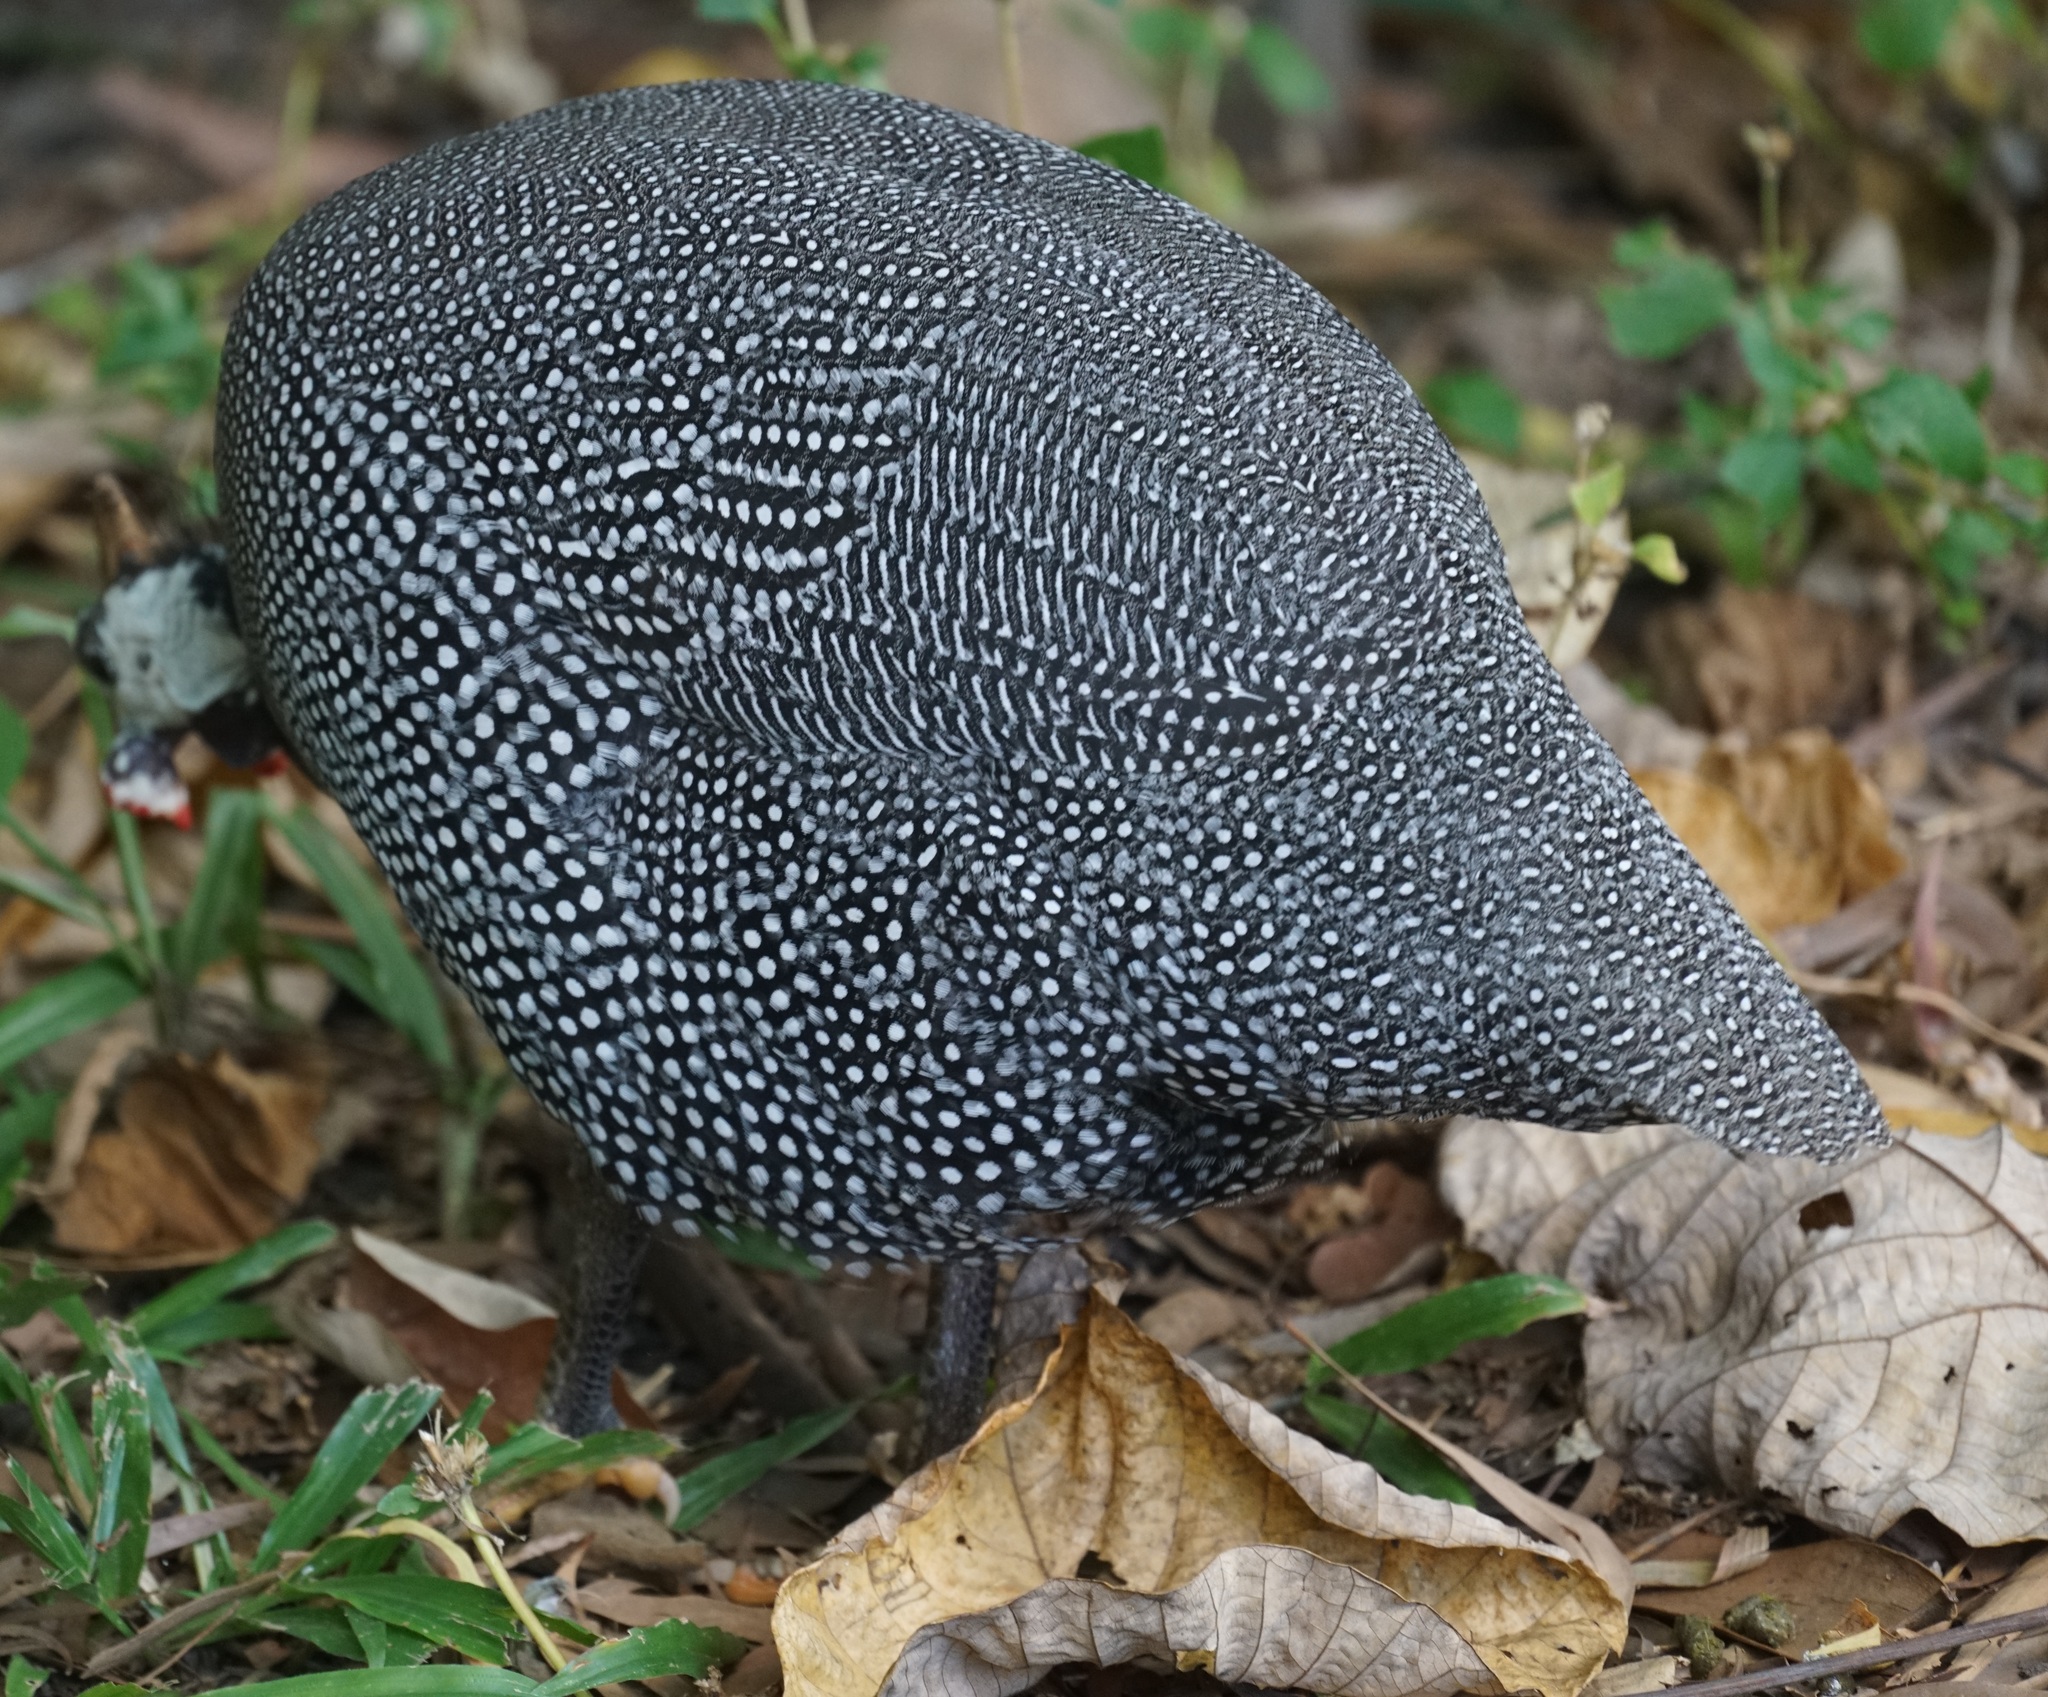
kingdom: Animalia
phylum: Chordata
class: Aves
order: Galliformes
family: Numididae
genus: Numida
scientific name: Numida meleagris
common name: Helmeted guineafowl
